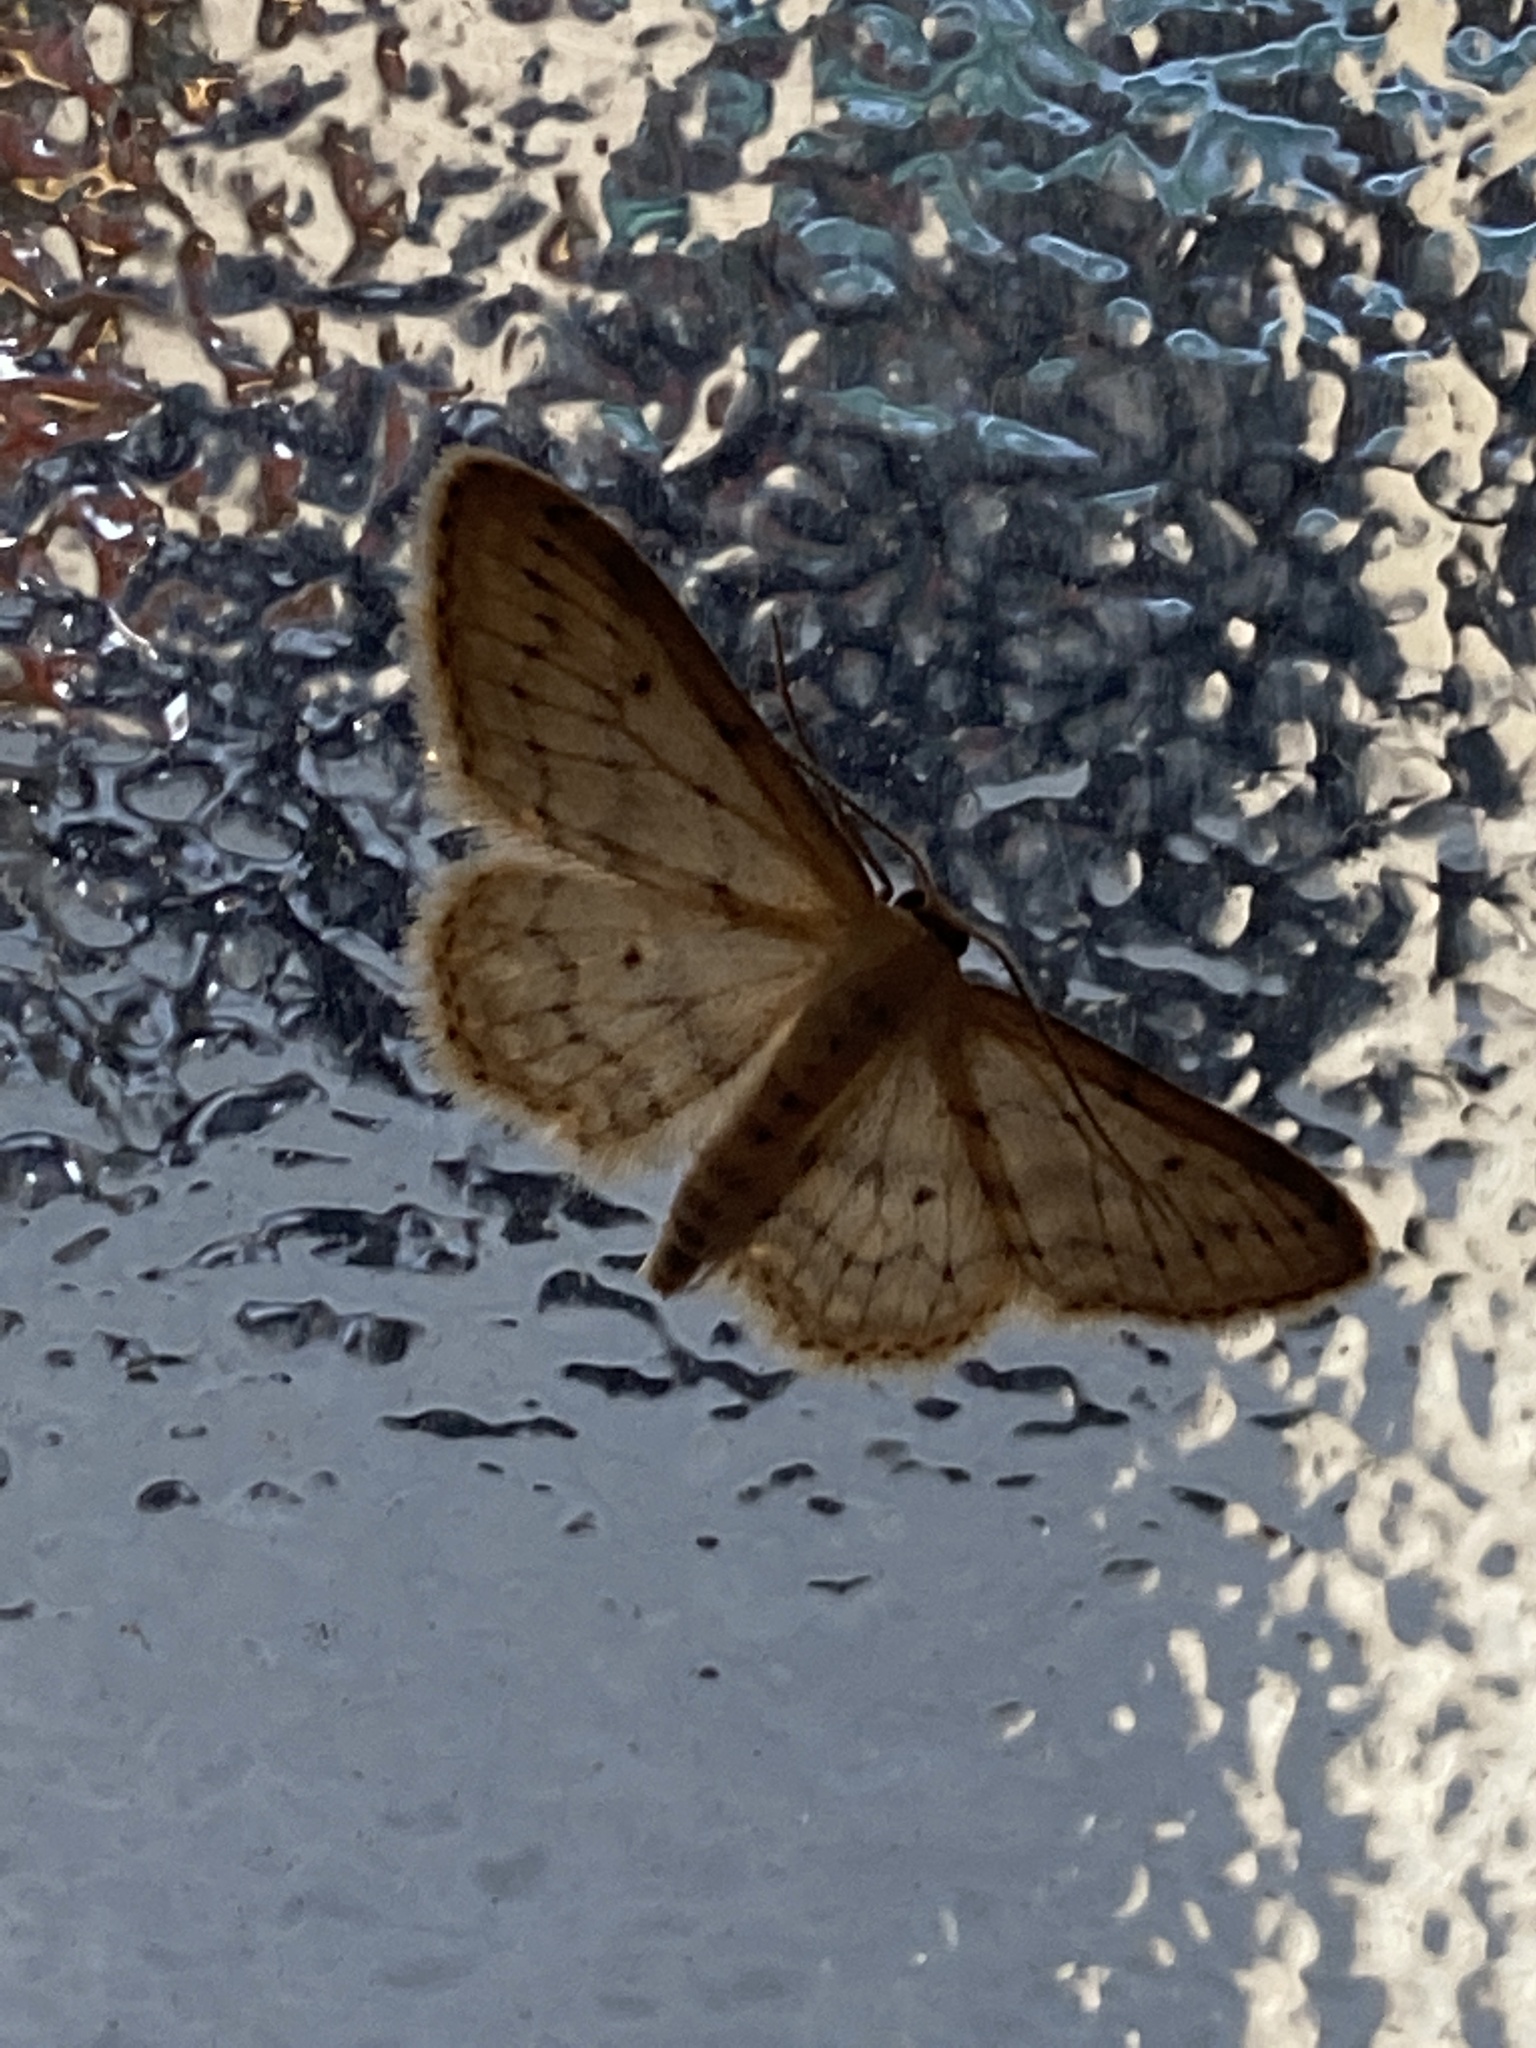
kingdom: Animalia
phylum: Arthropoda
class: Insecta
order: Lepidoptera
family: Geometridae
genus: Idaea
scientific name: Idaea seriata
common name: Small dusty wave
